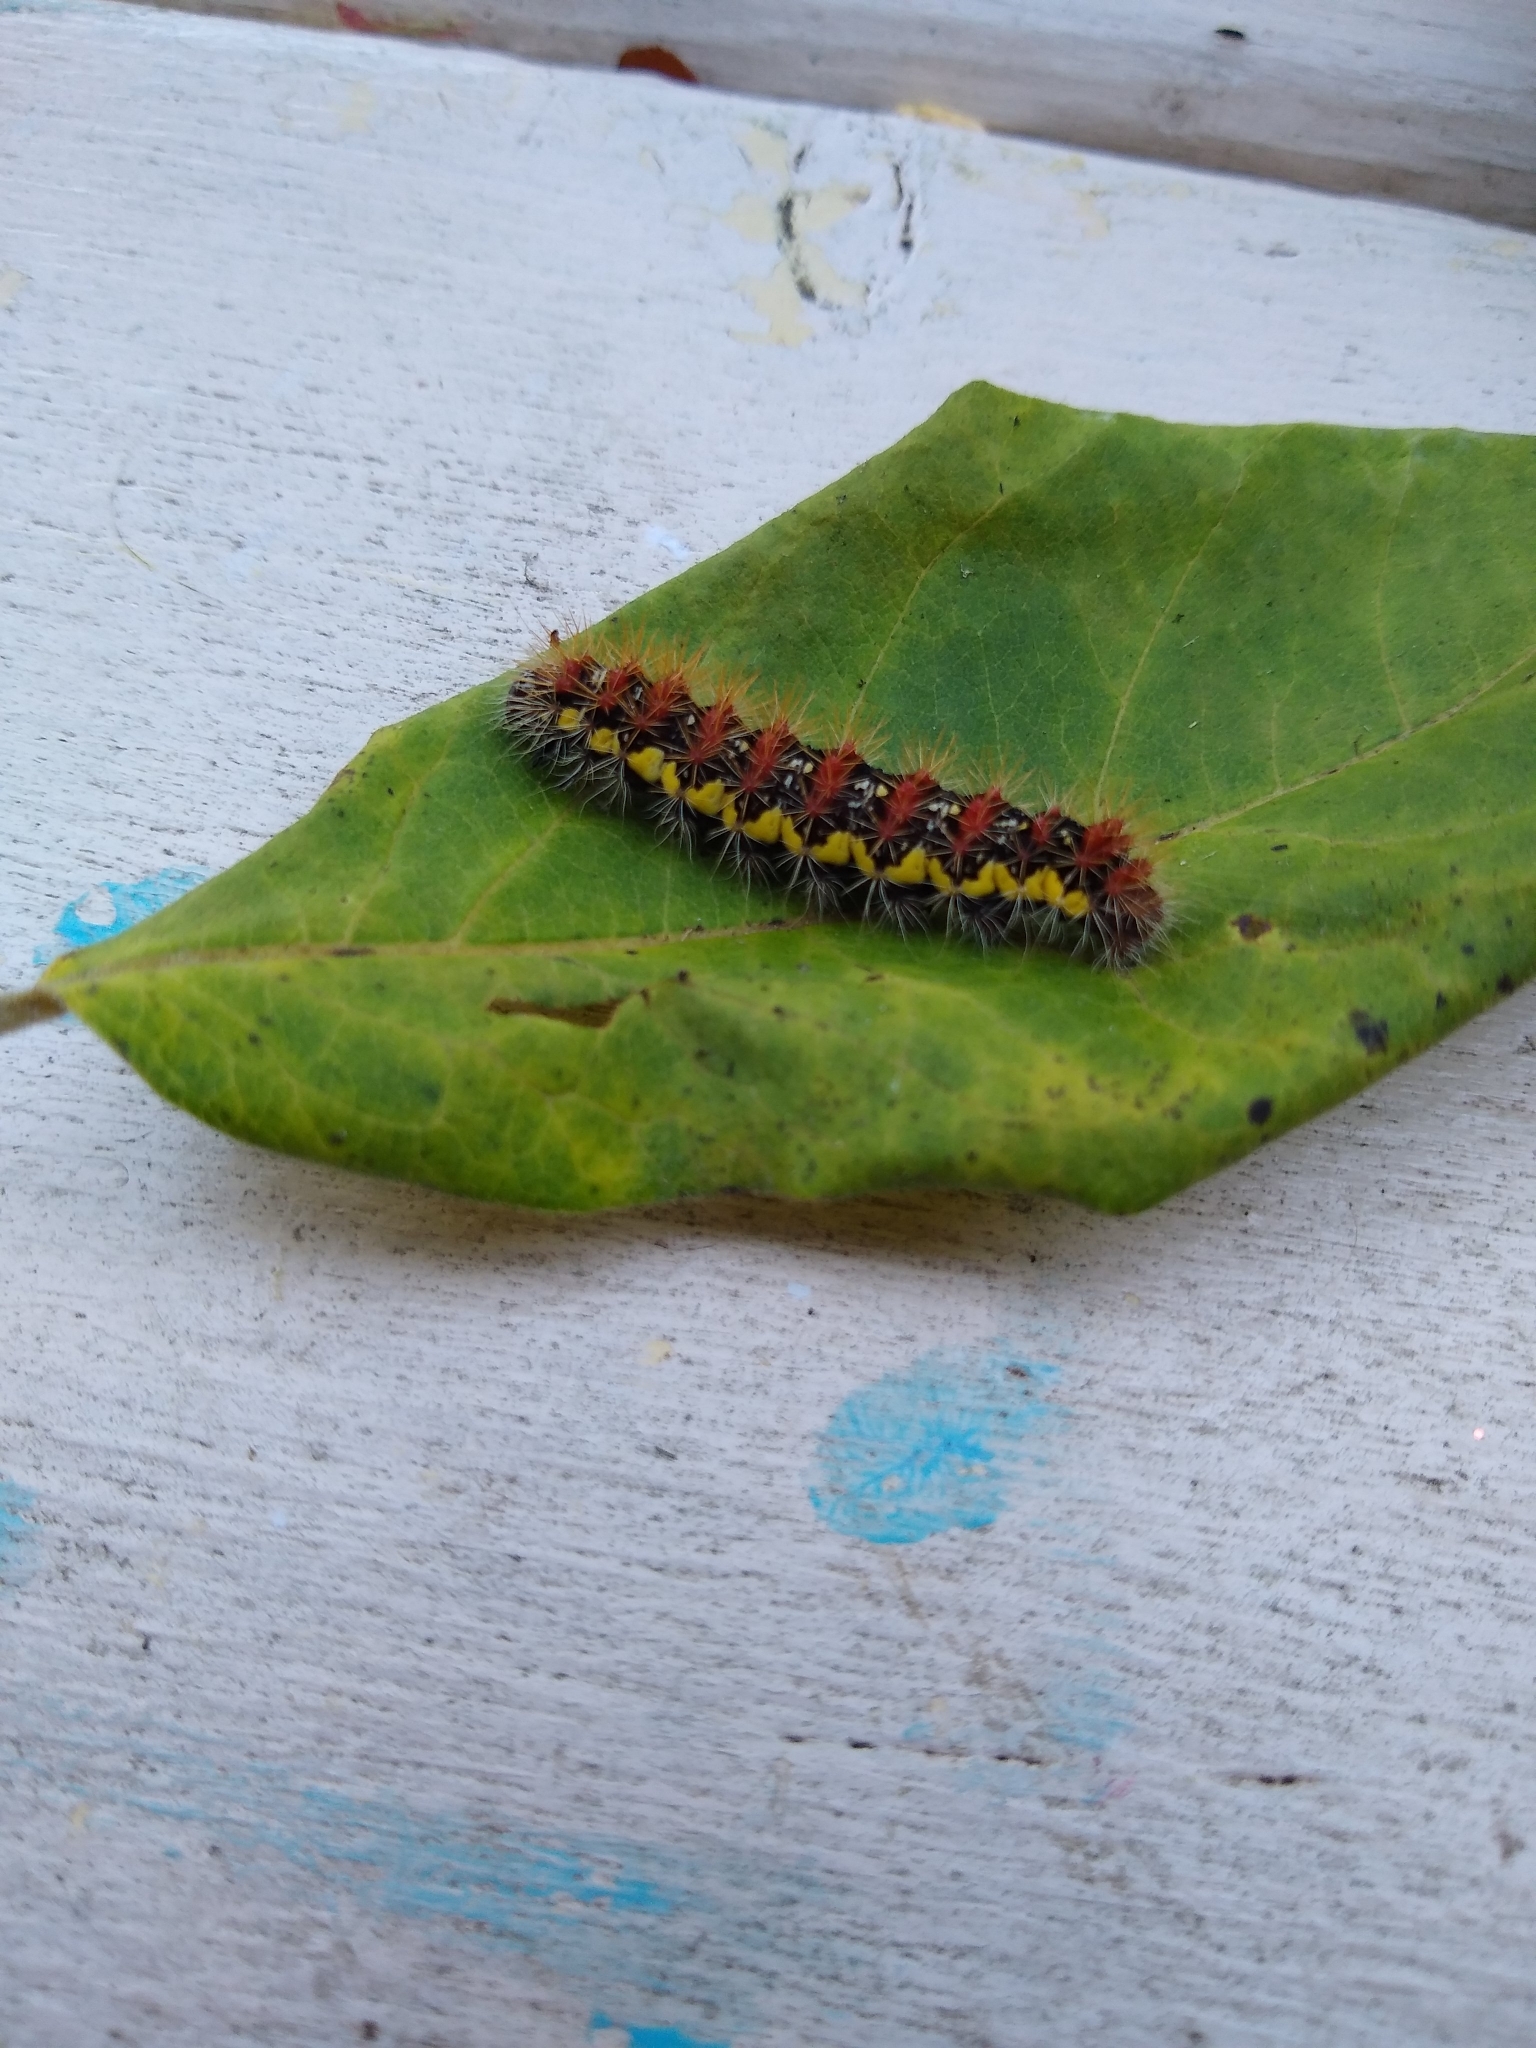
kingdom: Animalia
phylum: Arthropoda
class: Insecta
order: Lepidoptera
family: Noctuidae
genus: Acronicta
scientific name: Acronicta oblinita
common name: Smeared dagger
